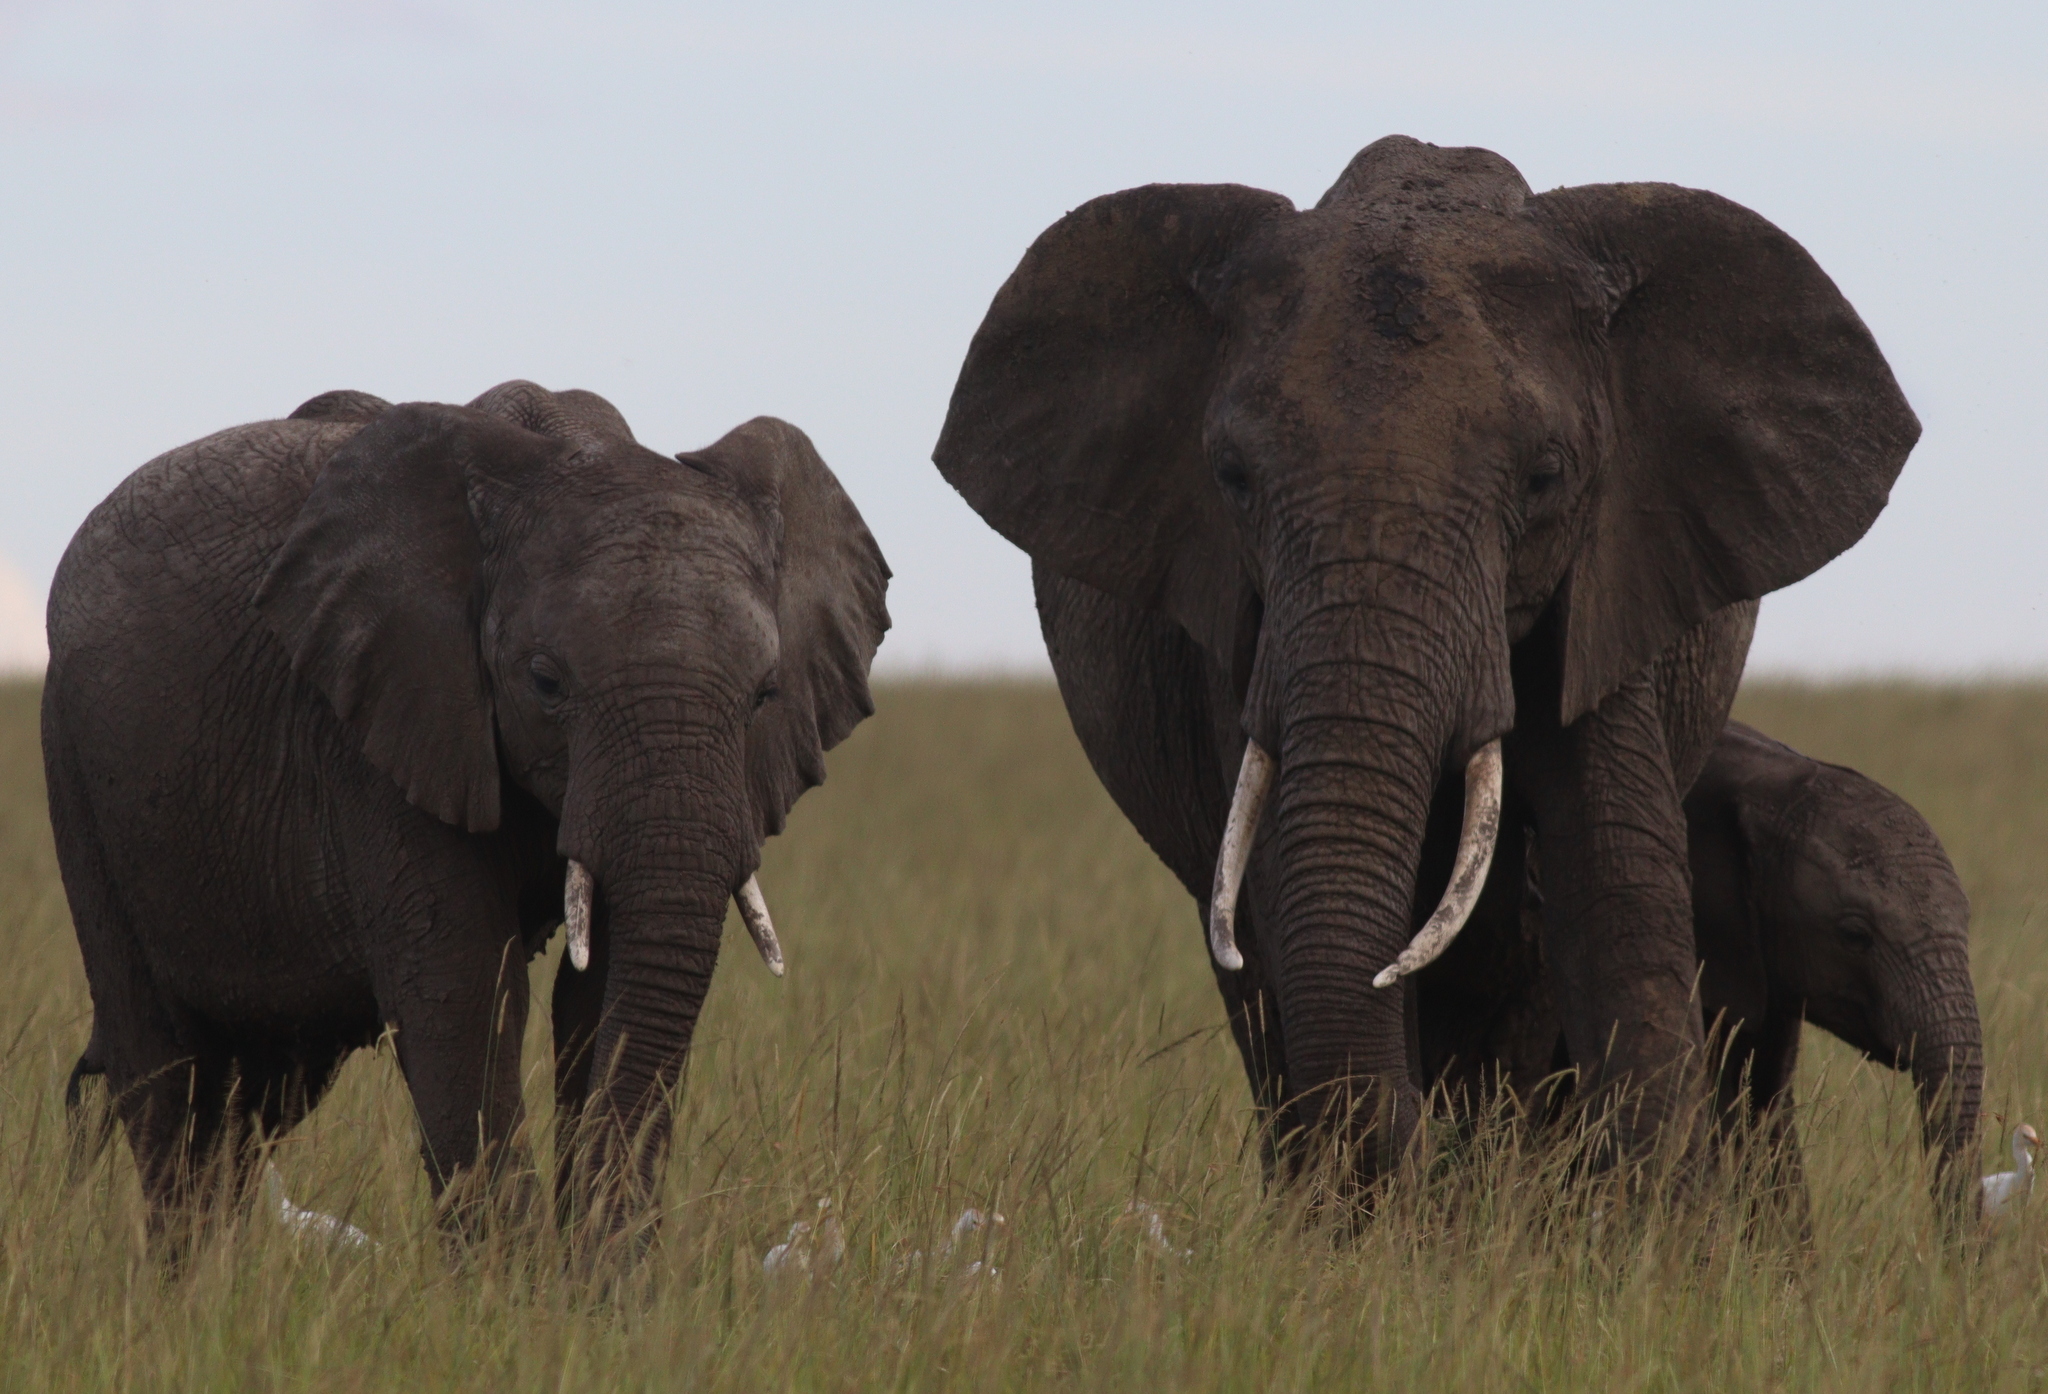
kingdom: Animalia
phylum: Chordata
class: Mammalia
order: Proboscidea
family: Elephantidae
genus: Loxodonta
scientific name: Loxodonta africana
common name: African elephant
